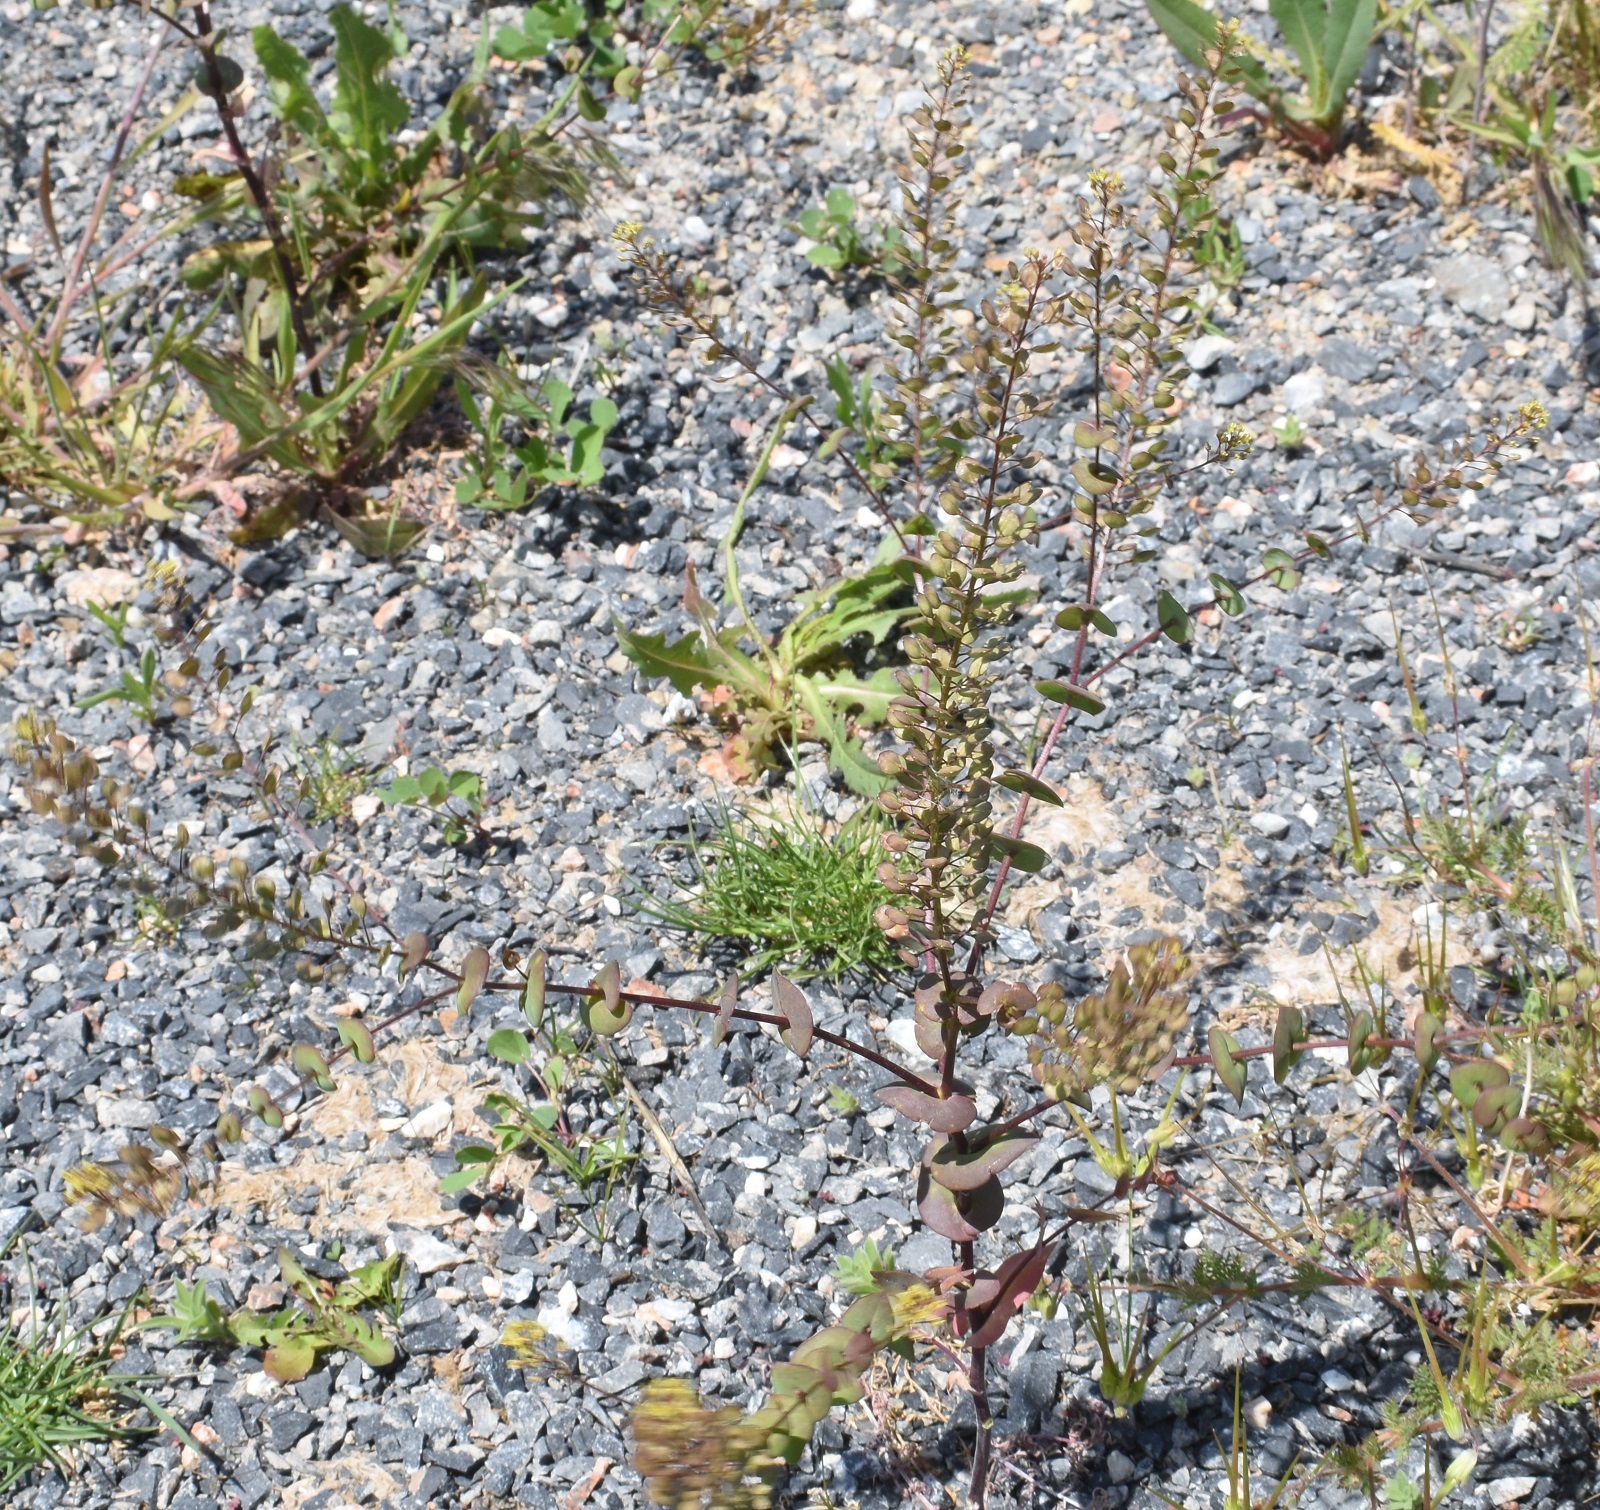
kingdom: Plantae
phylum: Tracheophyta
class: Magnoliopsida
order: Brassicales
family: Brassicaceae
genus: Lepidium
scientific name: Lepidium perfoliatum
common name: Perfoliate pepperwort
